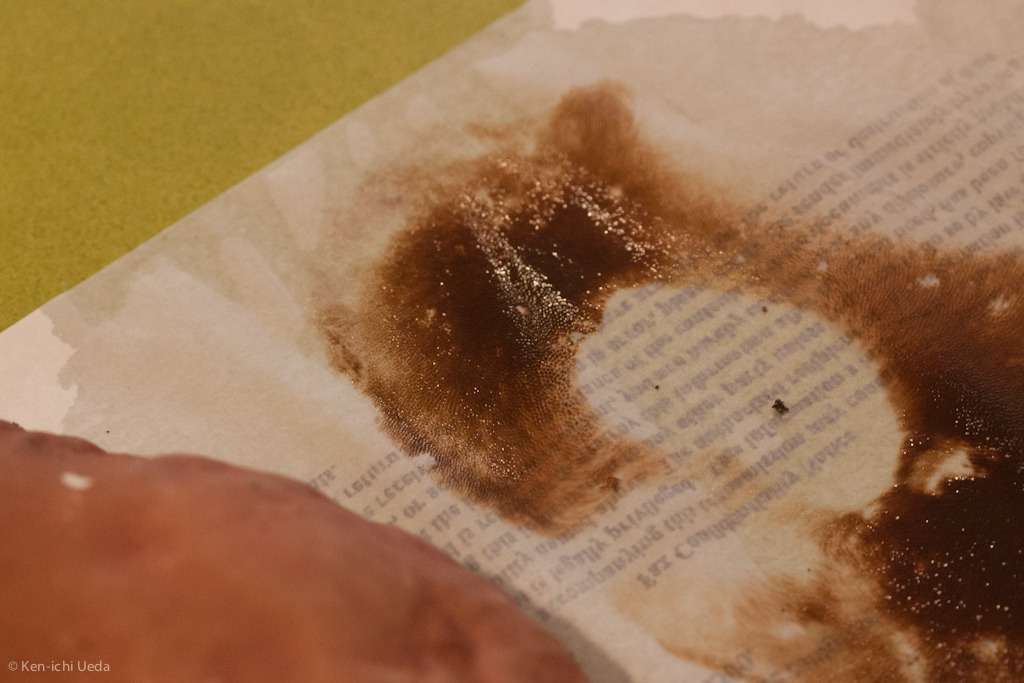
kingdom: Fungi
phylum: Basidiomycota
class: Agaricomycetes
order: Boletales
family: Boletaceae
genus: Xanthoconium
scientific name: Xanthoconium separans
